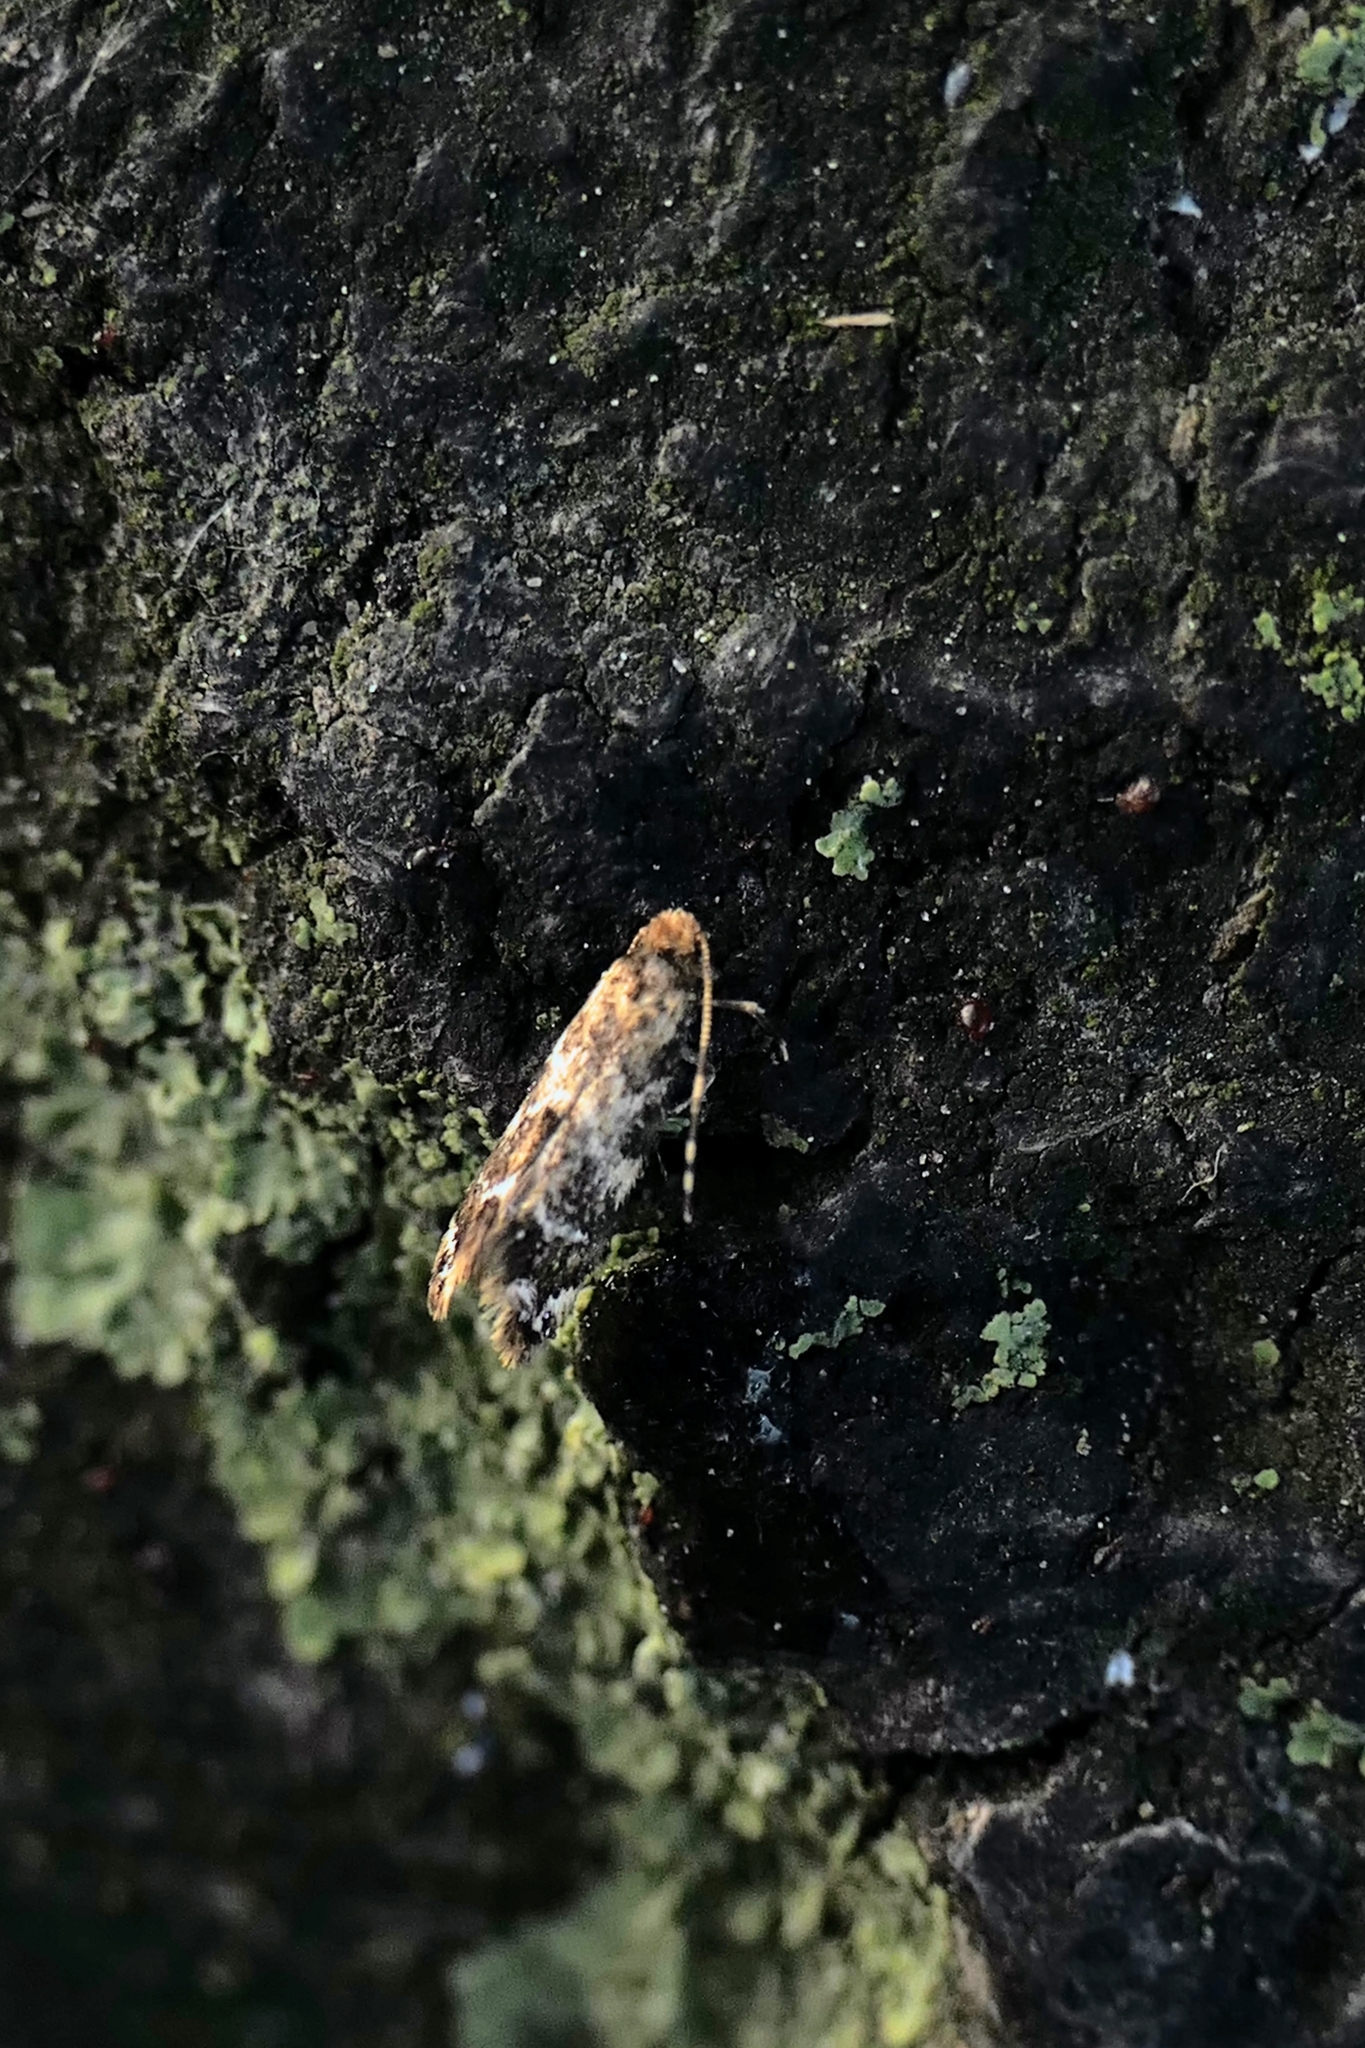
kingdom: Animalia
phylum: Arthropoda
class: Insecta
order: Lepidoptera
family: Dryadaulidae
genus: Dryadaula
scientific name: Dryadaula pactolia
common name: Cellar clothes
